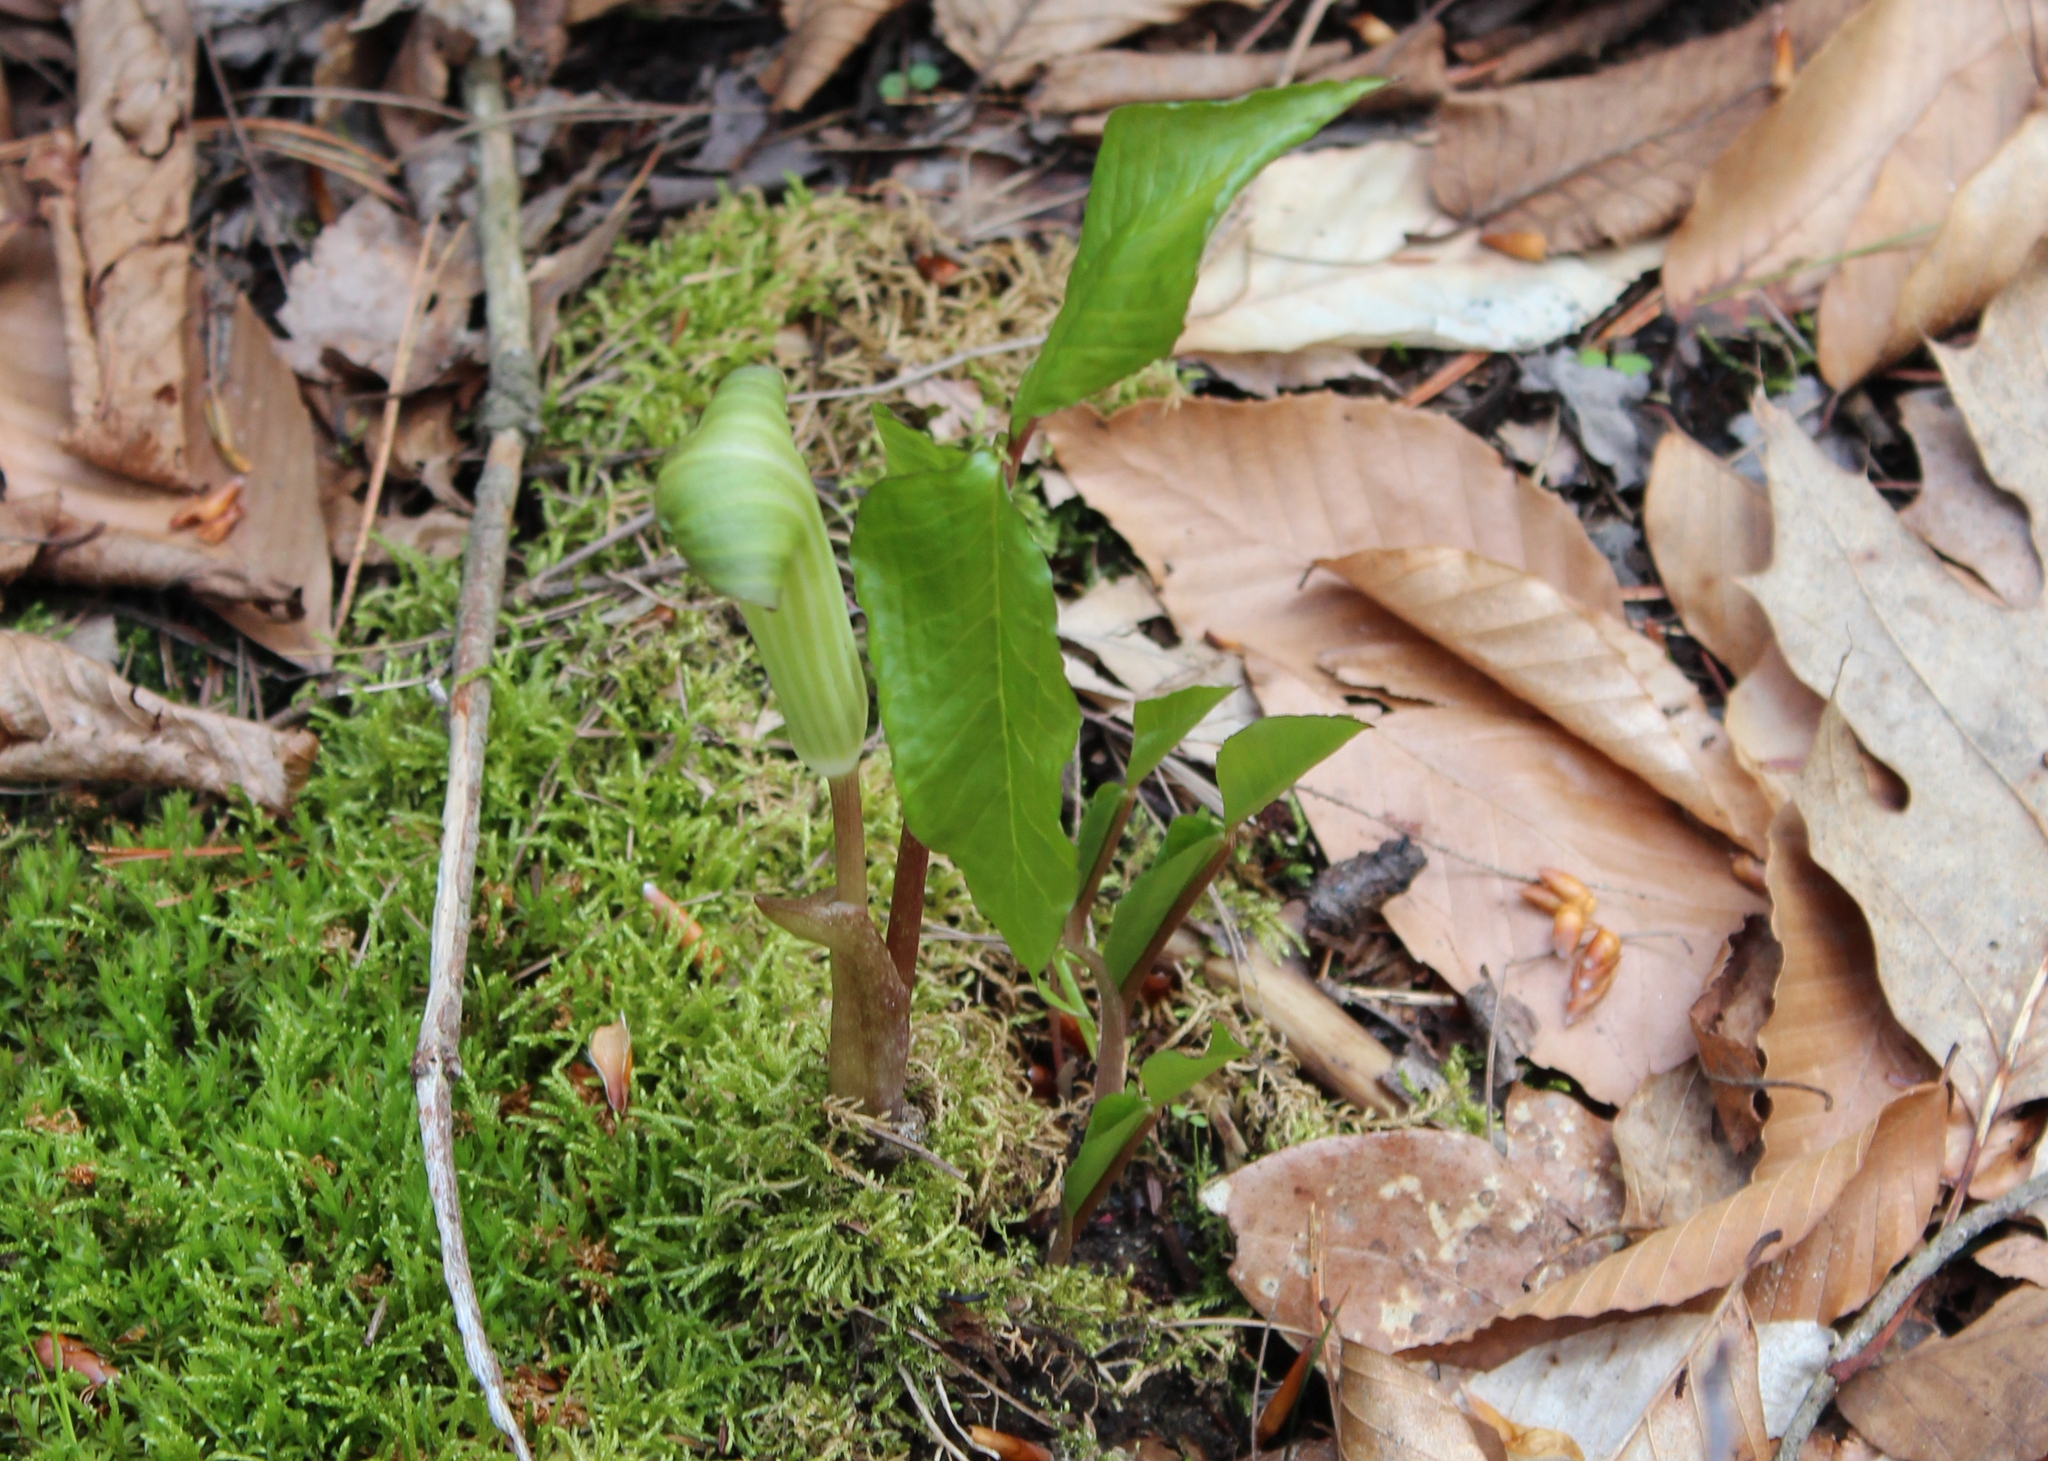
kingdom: Plantae
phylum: Tracheophyta
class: Liliopsida
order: Alismatales
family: Araceae
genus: Arisaema
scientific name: Arisaema triphyllum
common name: Jack-in-the-pulpit
